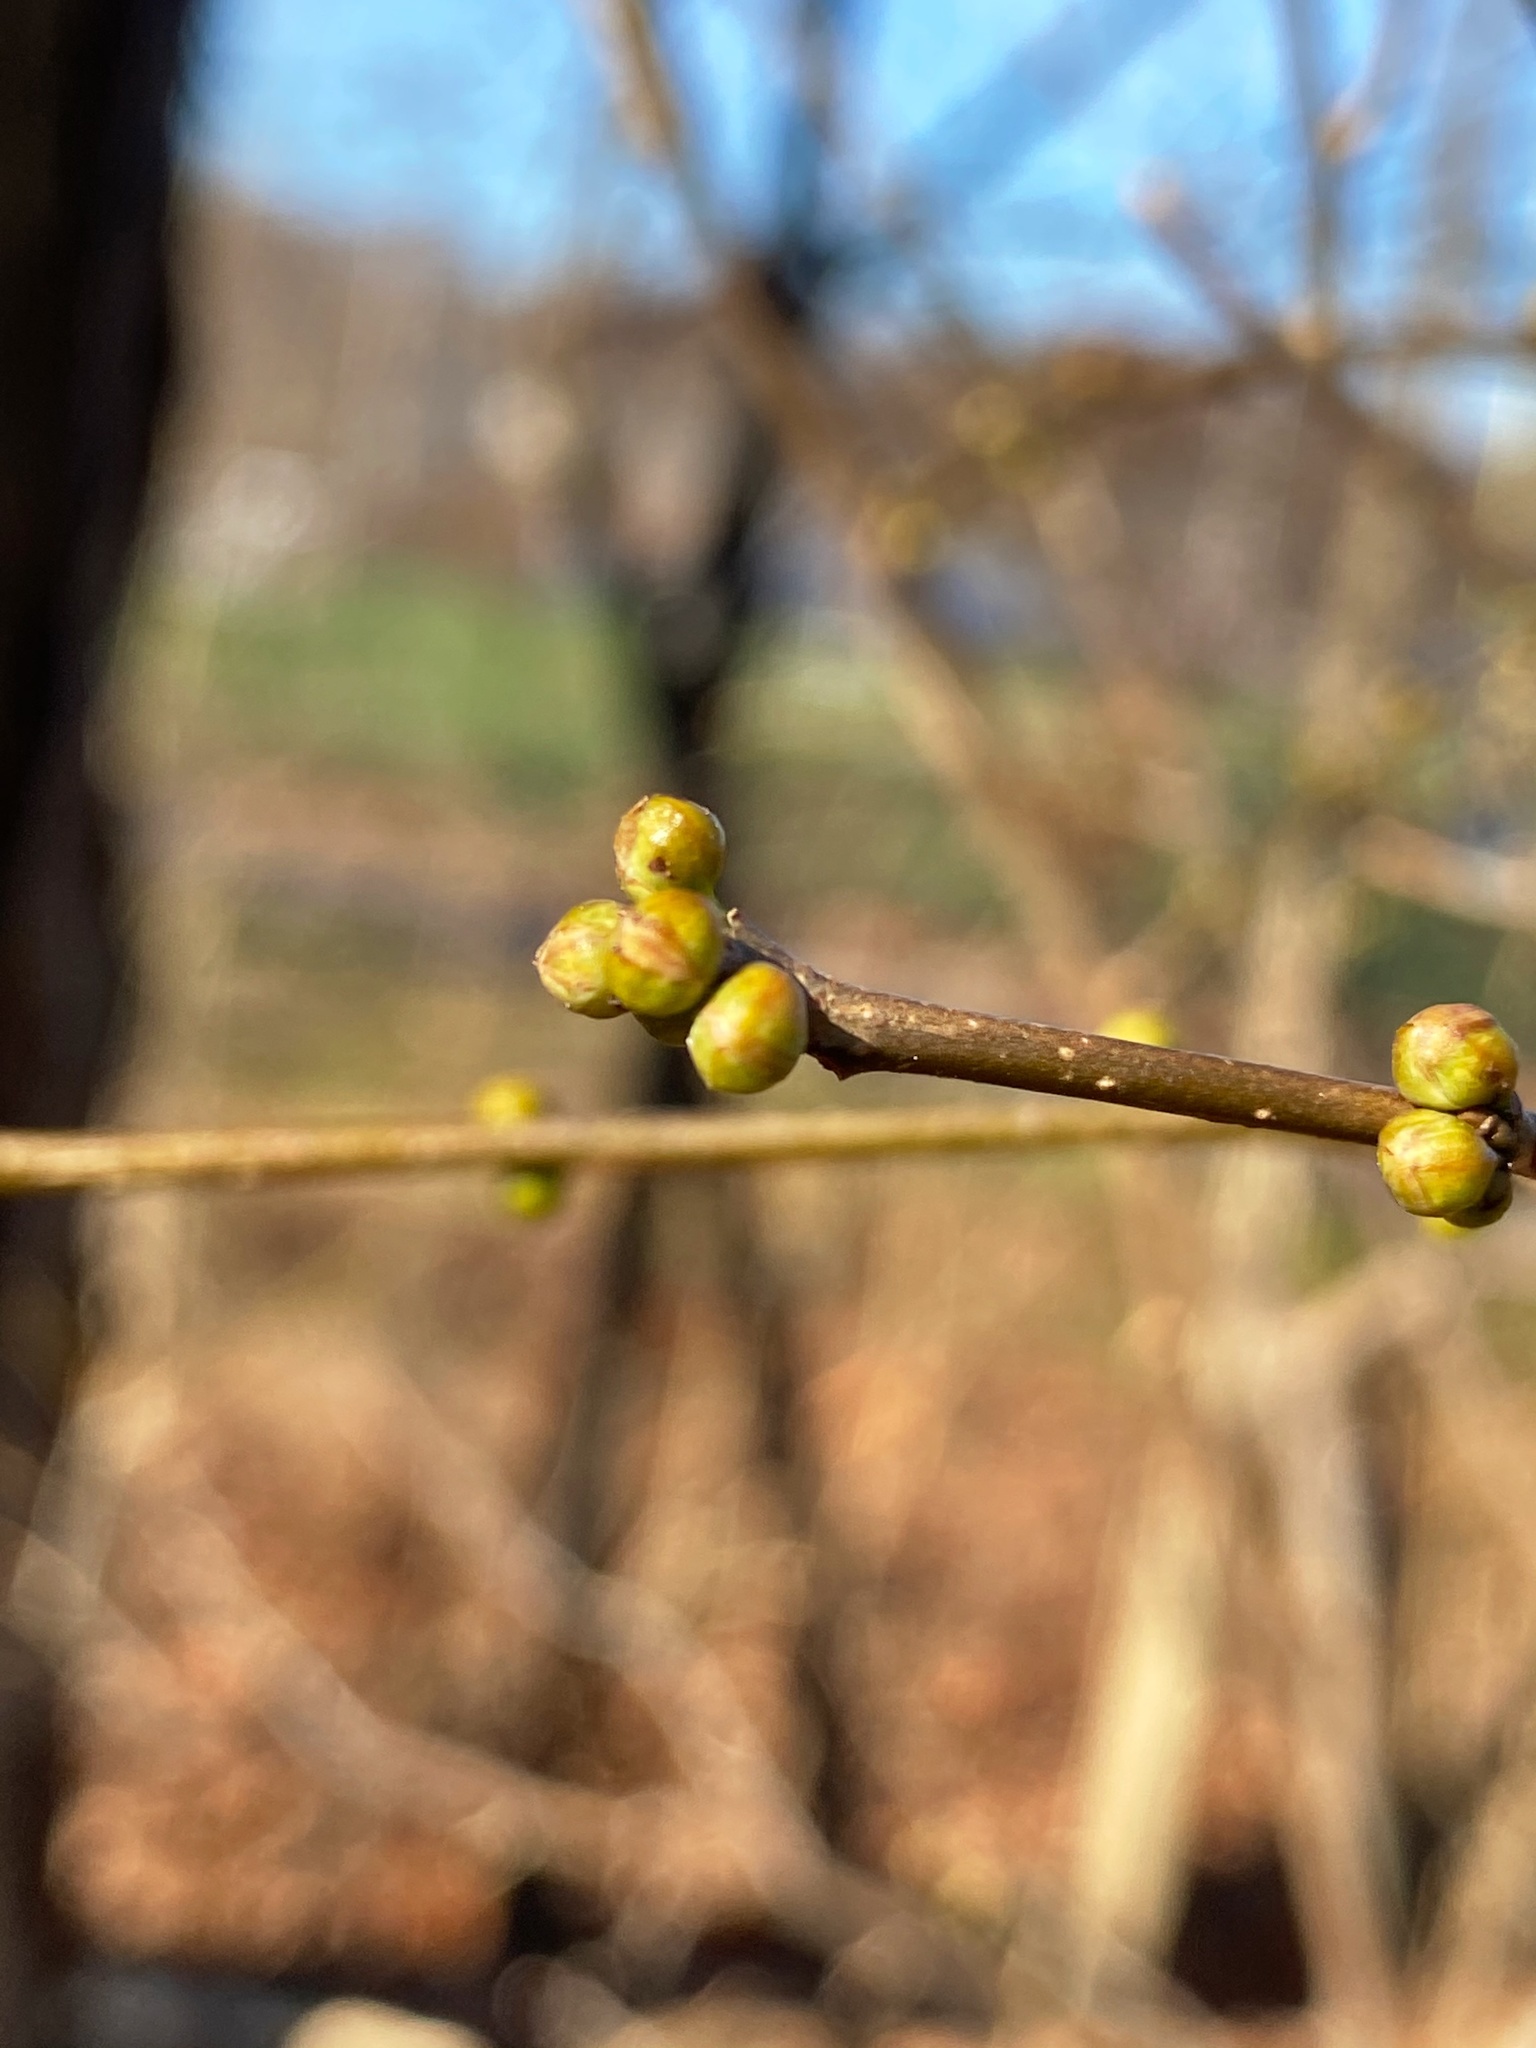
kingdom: Plantae
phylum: Tracheophyta
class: Magnoliopsida
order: Laurales
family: Lauraceae
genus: Lindera
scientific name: Lindera benzoin
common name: Spicebush
